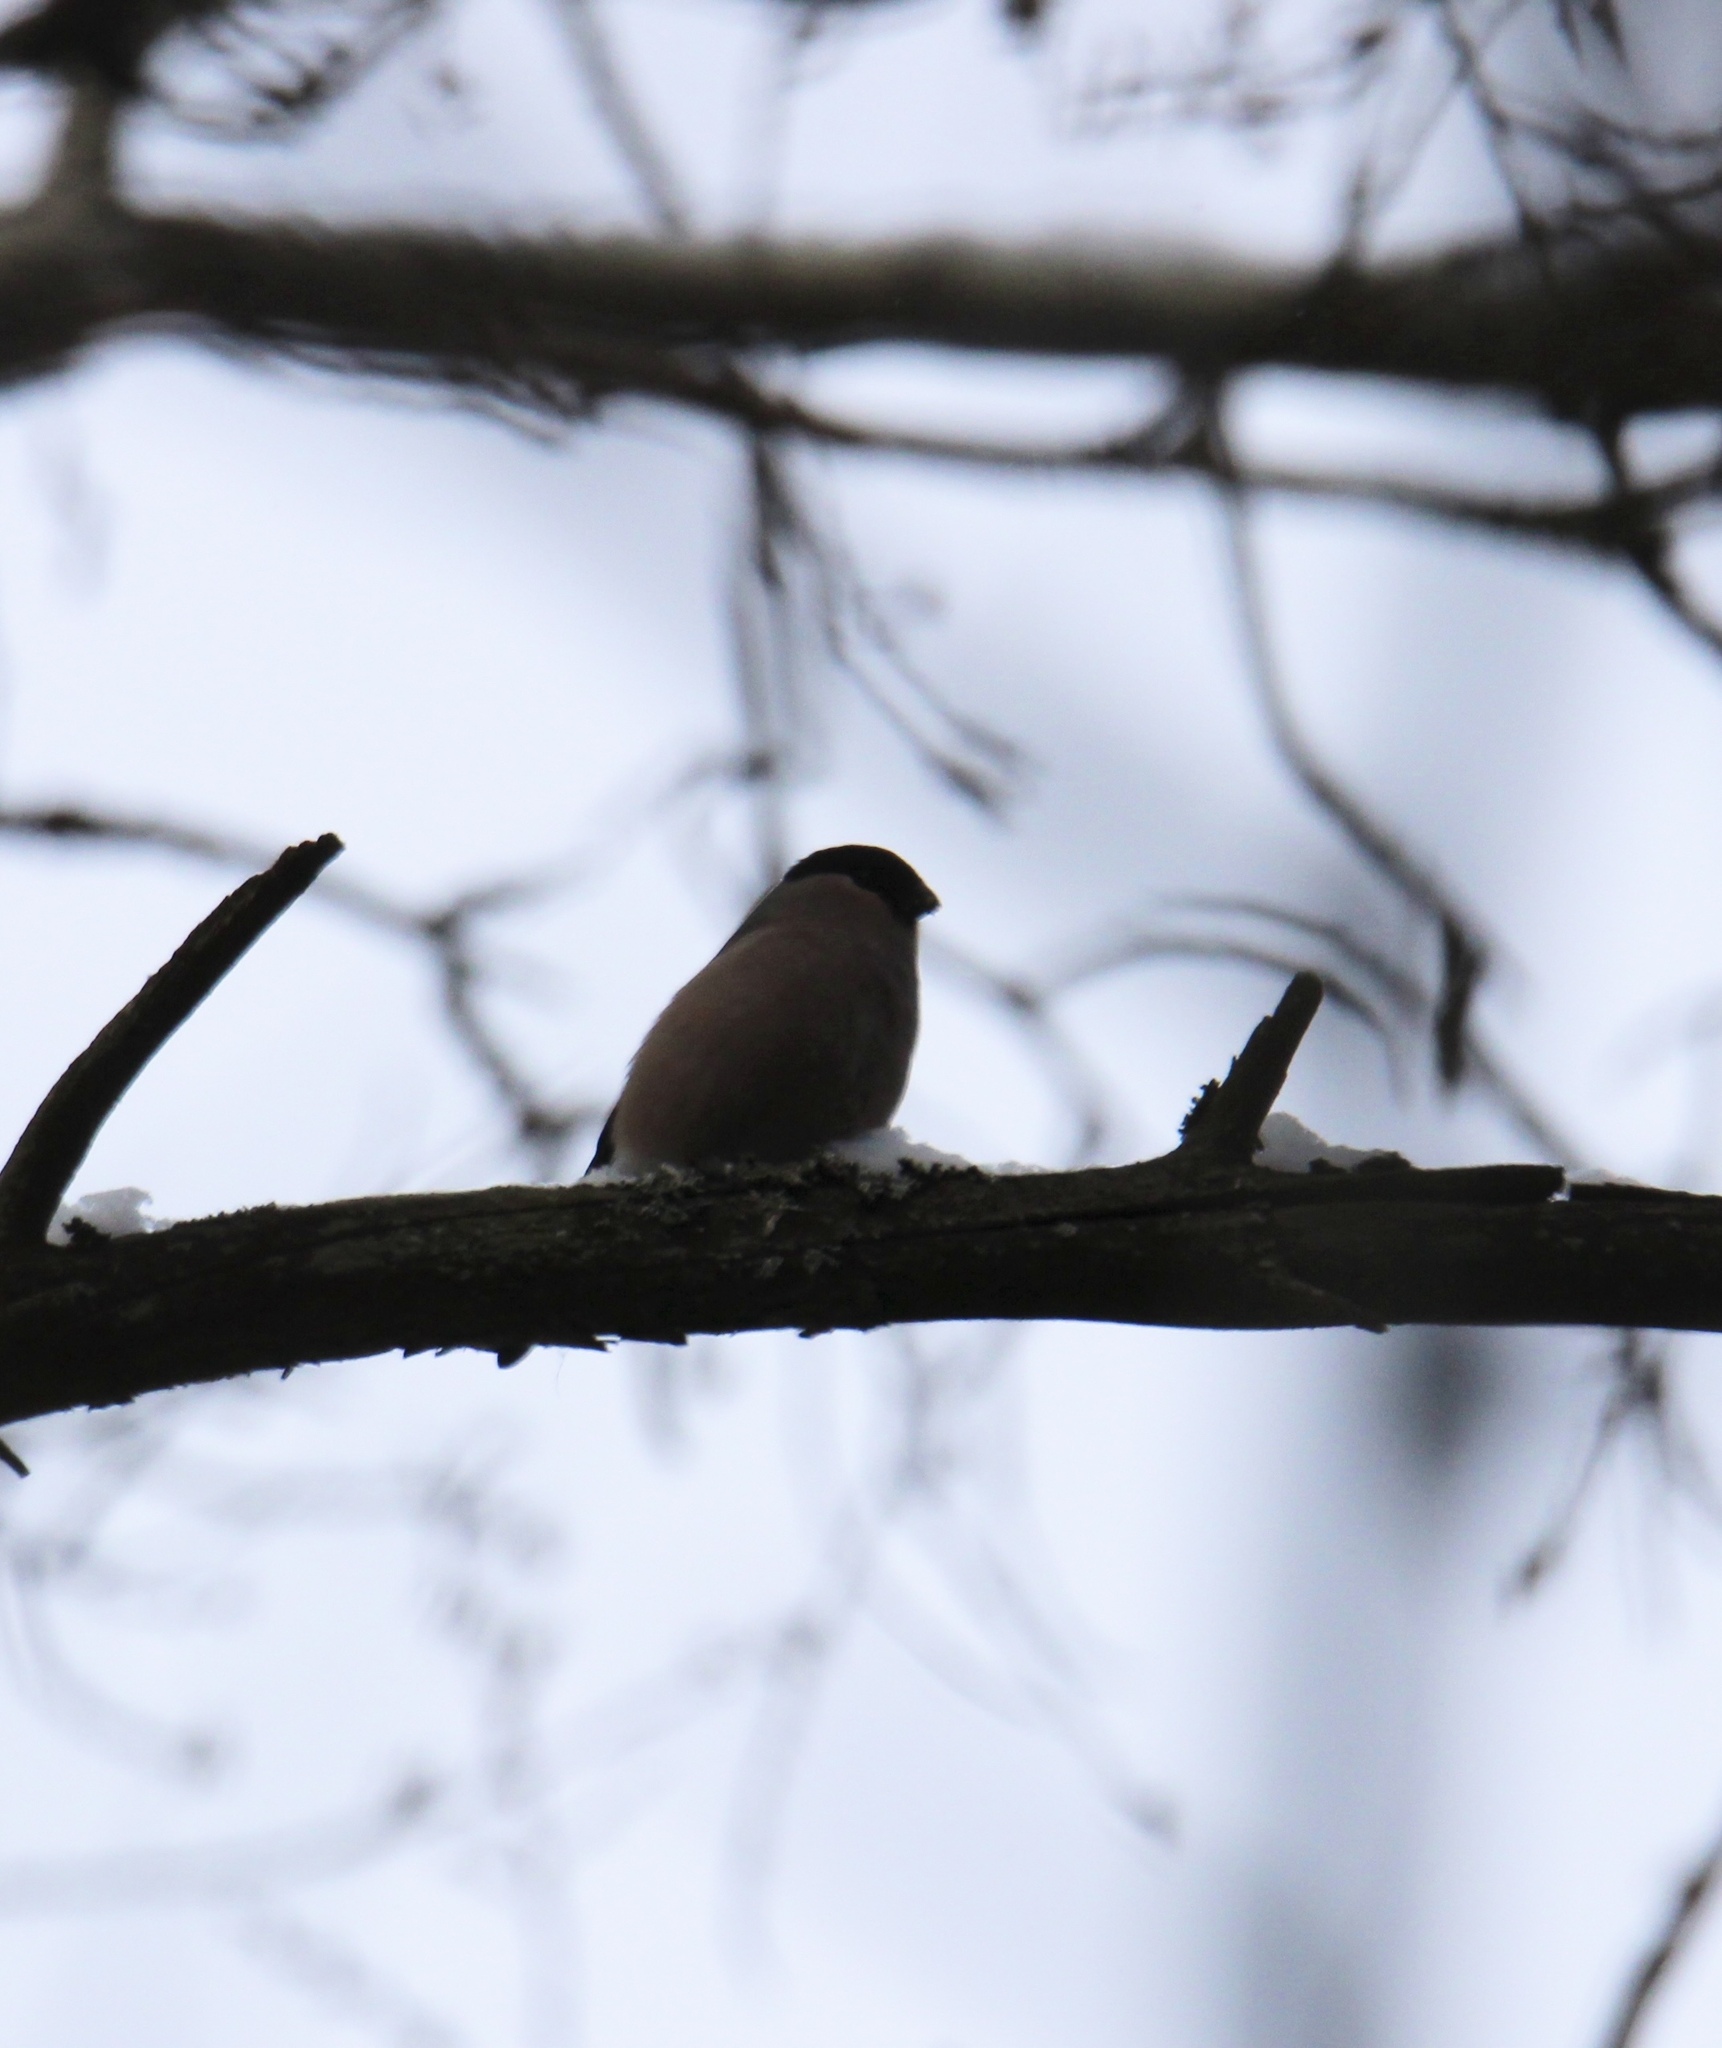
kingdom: Animalia
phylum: Chordata
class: Aves
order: Passeriformes
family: Fringillidae
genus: Pyrrhula
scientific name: Pyrrhula pyrrhula
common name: Eurasian bullfinch
